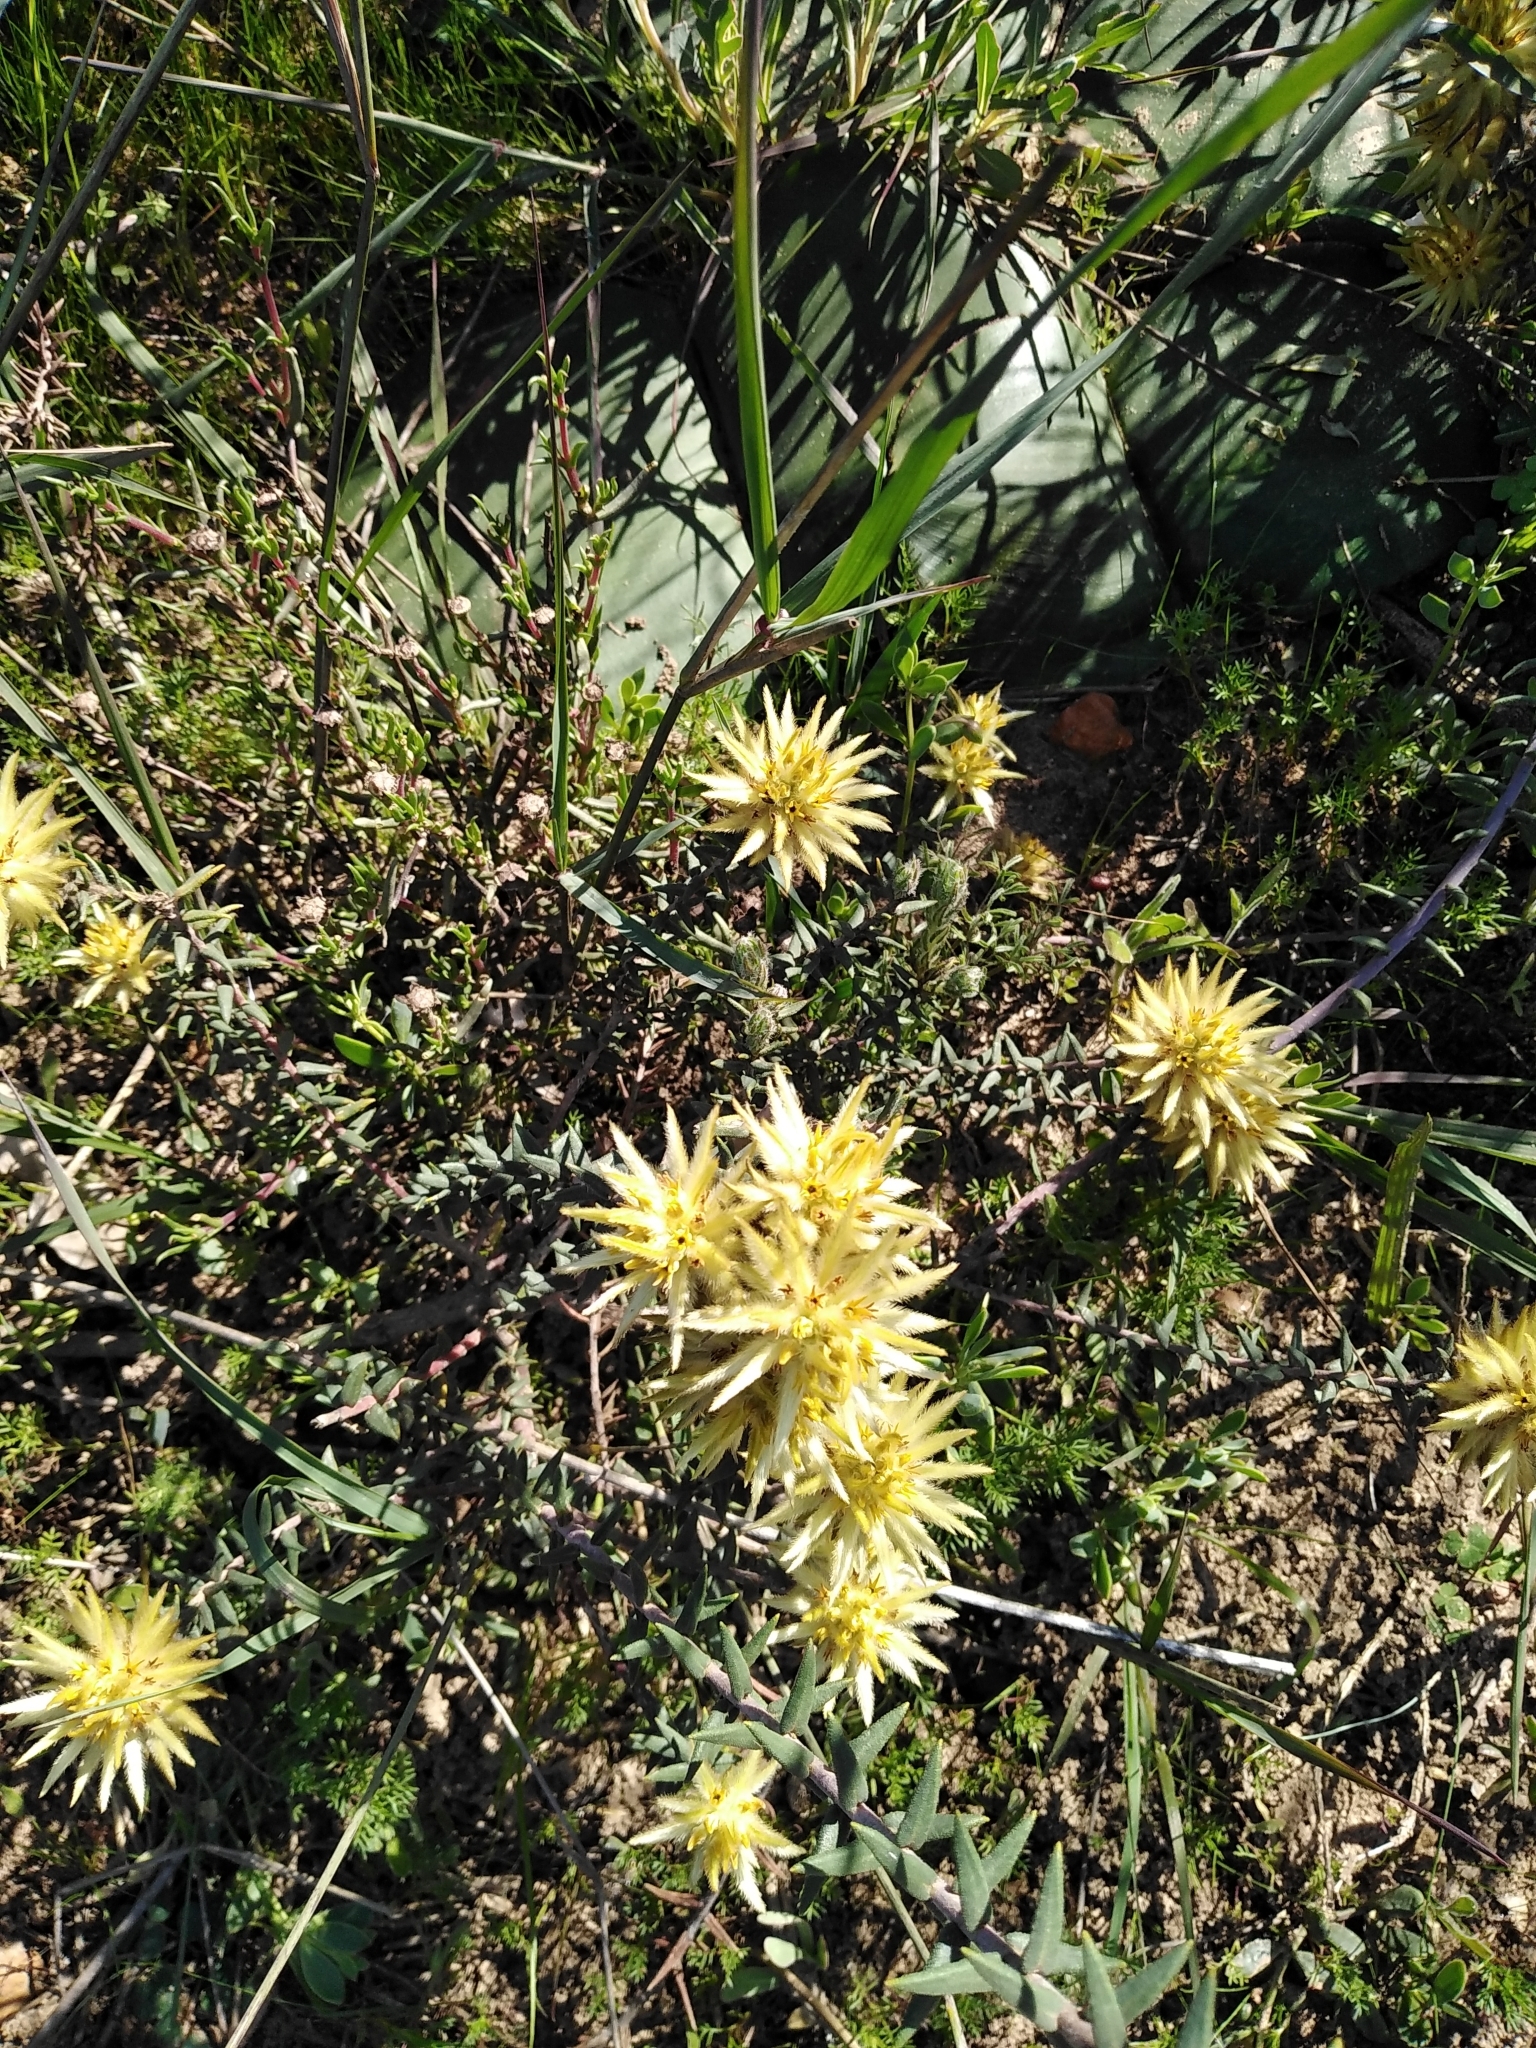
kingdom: Plantae
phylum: Tracheophyta
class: Magnoliopsida
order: Rosales
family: Rhamnaceae
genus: Phylica
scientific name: Phylica plumosa
